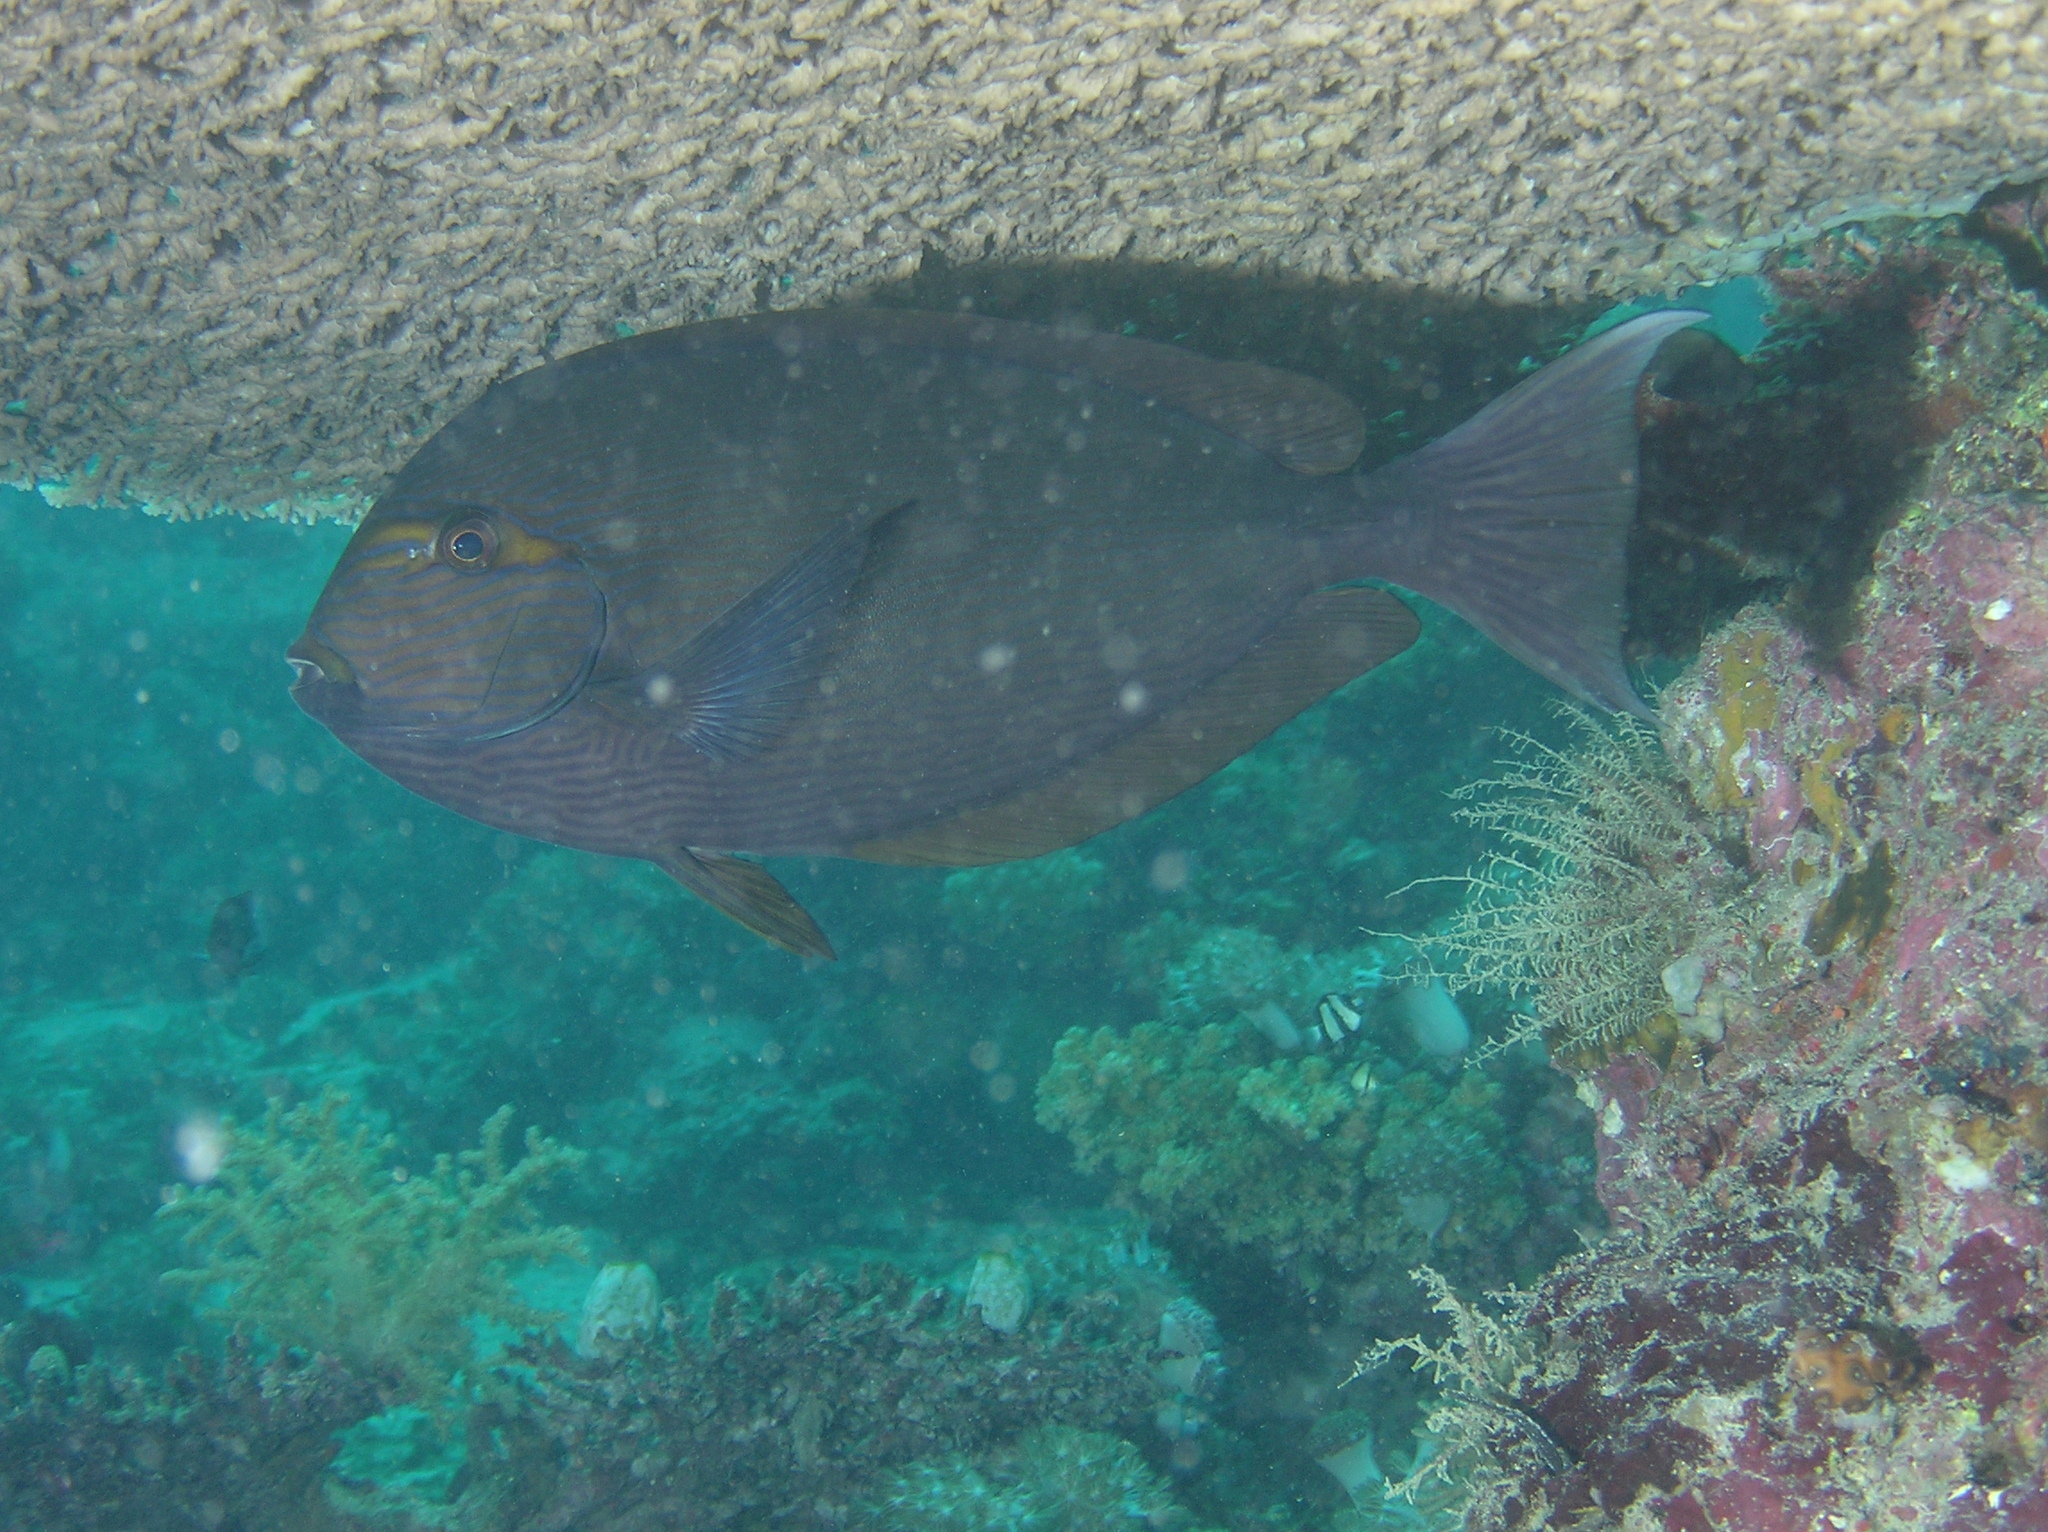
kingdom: Animalia
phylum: Chordata
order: Perciformes
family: Acanthuridae
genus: Acanthurus
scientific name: Acanthurus mata
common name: Bleeker's surgeonfish
